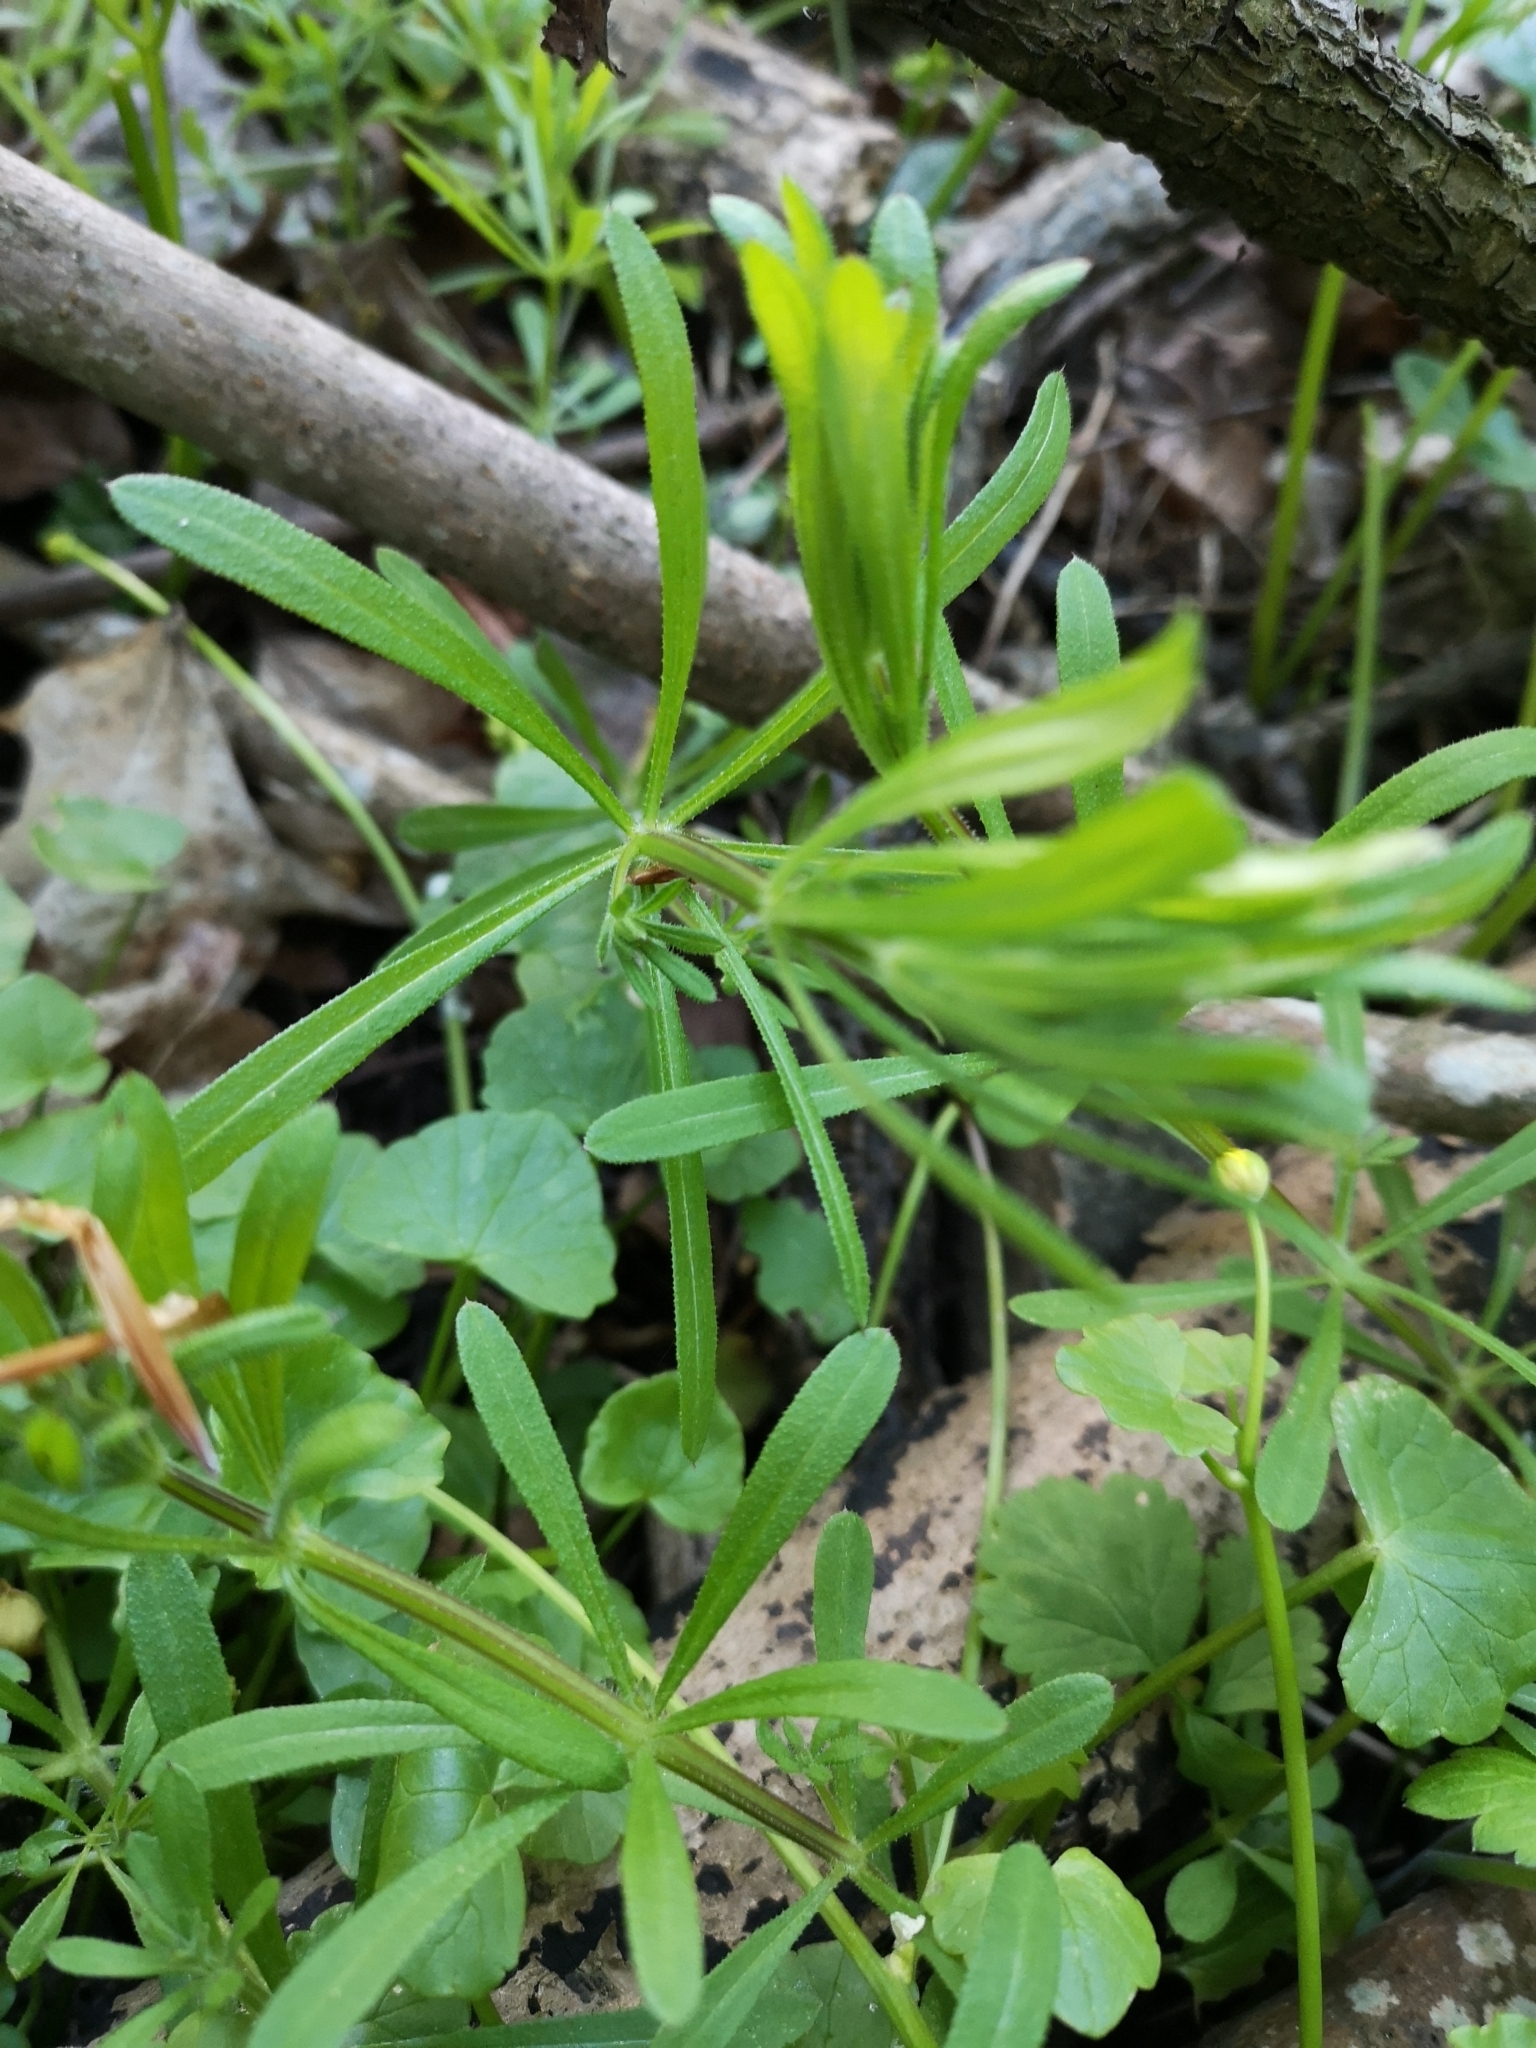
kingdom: Plantae
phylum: Tracheophyta
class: Magnoliopsida
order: Gentianales
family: Rubiaceae
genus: Galium
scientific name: Galium aparine
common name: Cleavers
